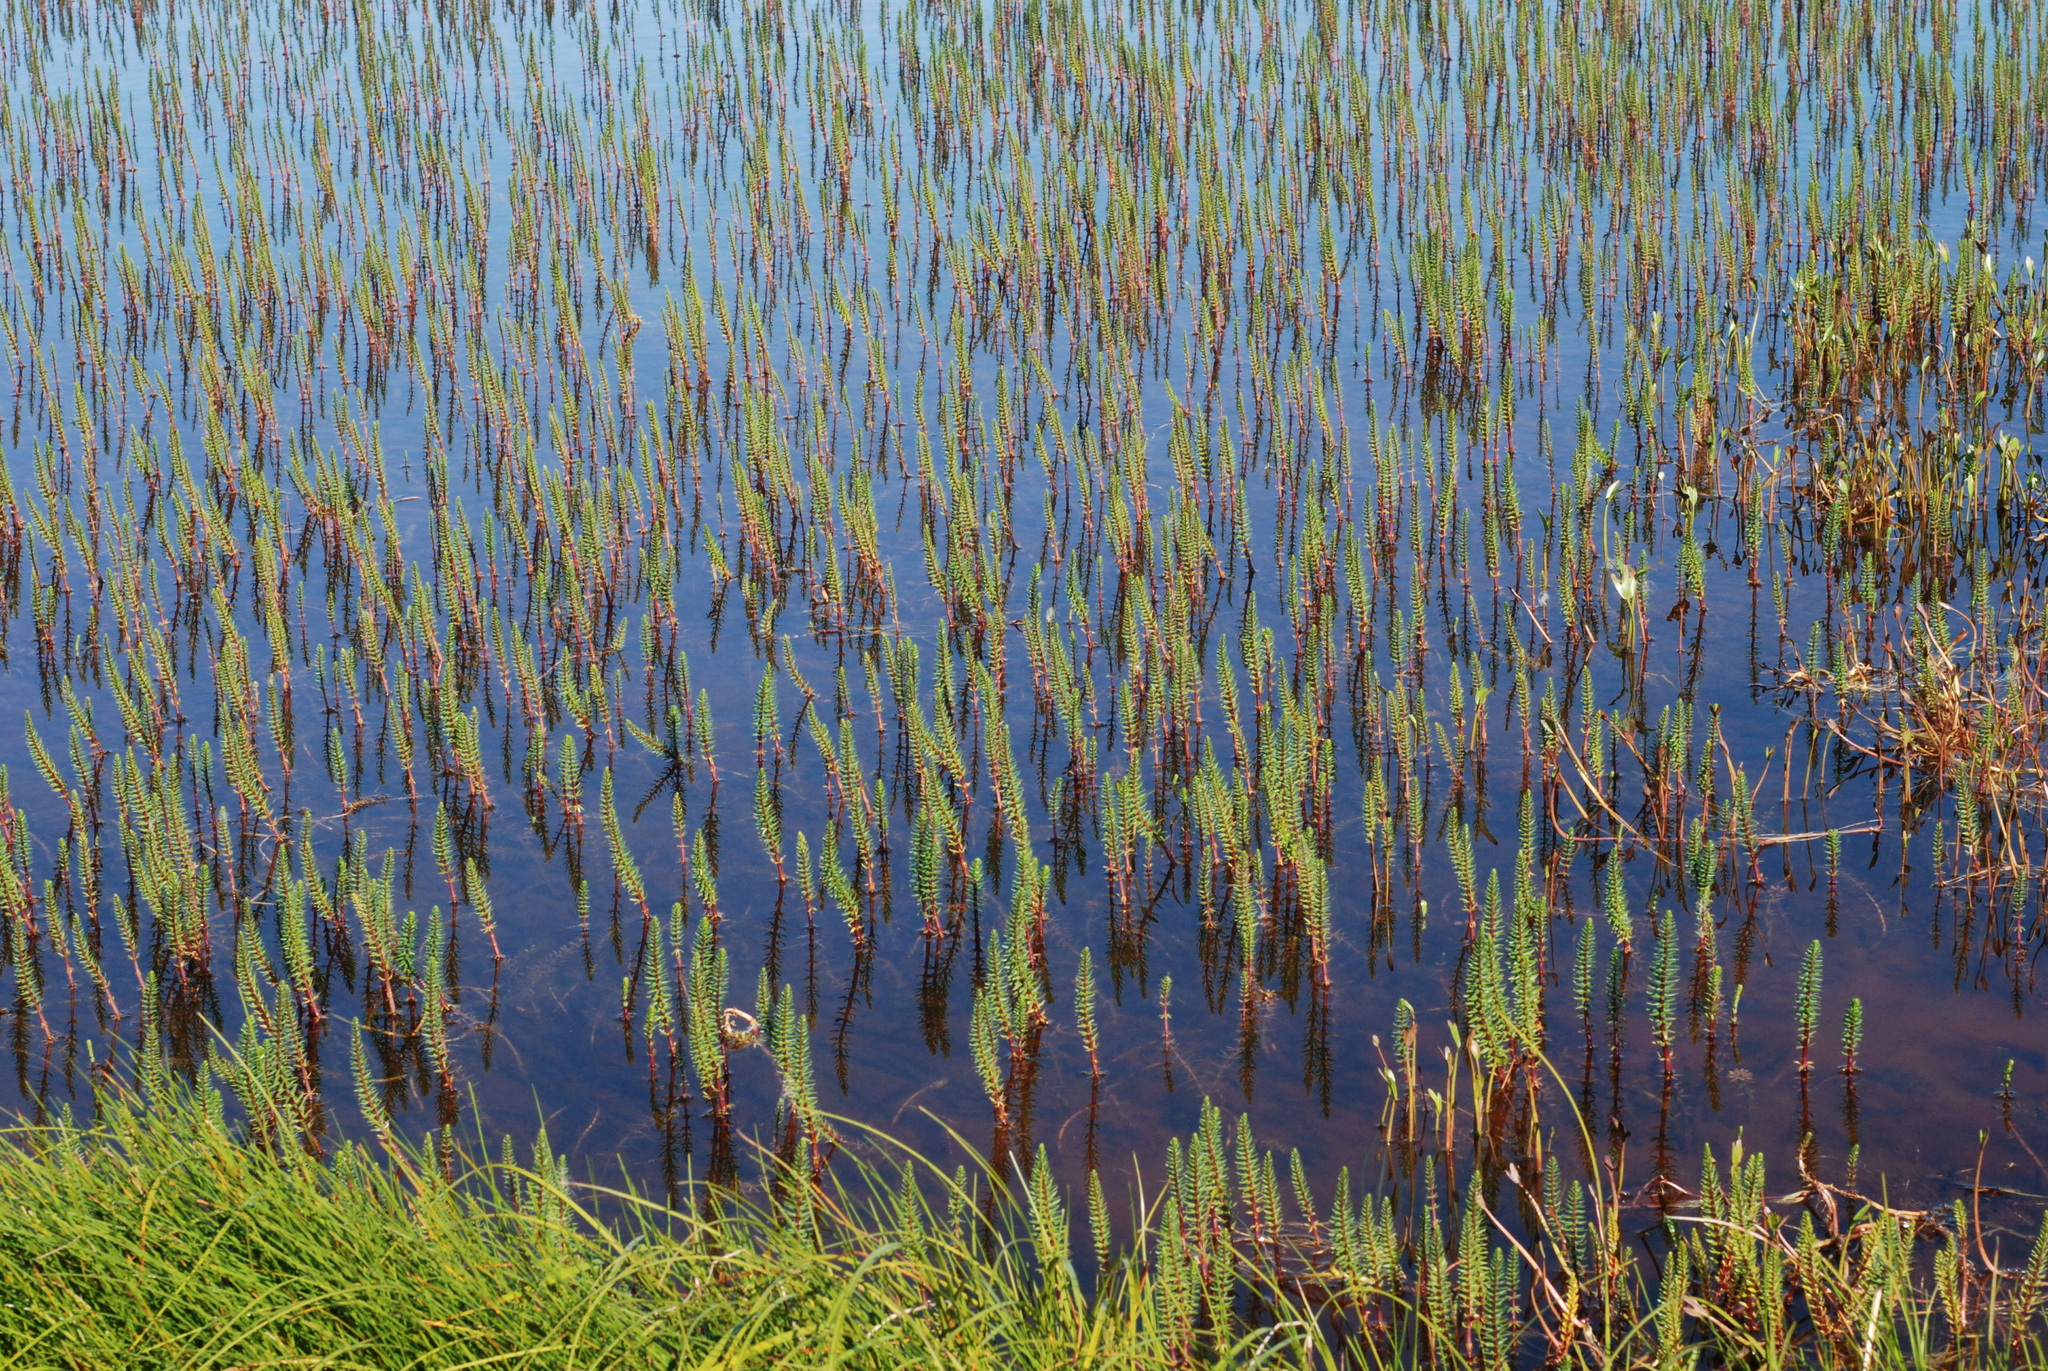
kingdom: Plantae
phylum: Tracheophyta
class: Magnoliopsida
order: Lamiales
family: Plantaginaceae
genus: Hippuris
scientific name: Hippuris vulgaris
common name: Mare's-tail
